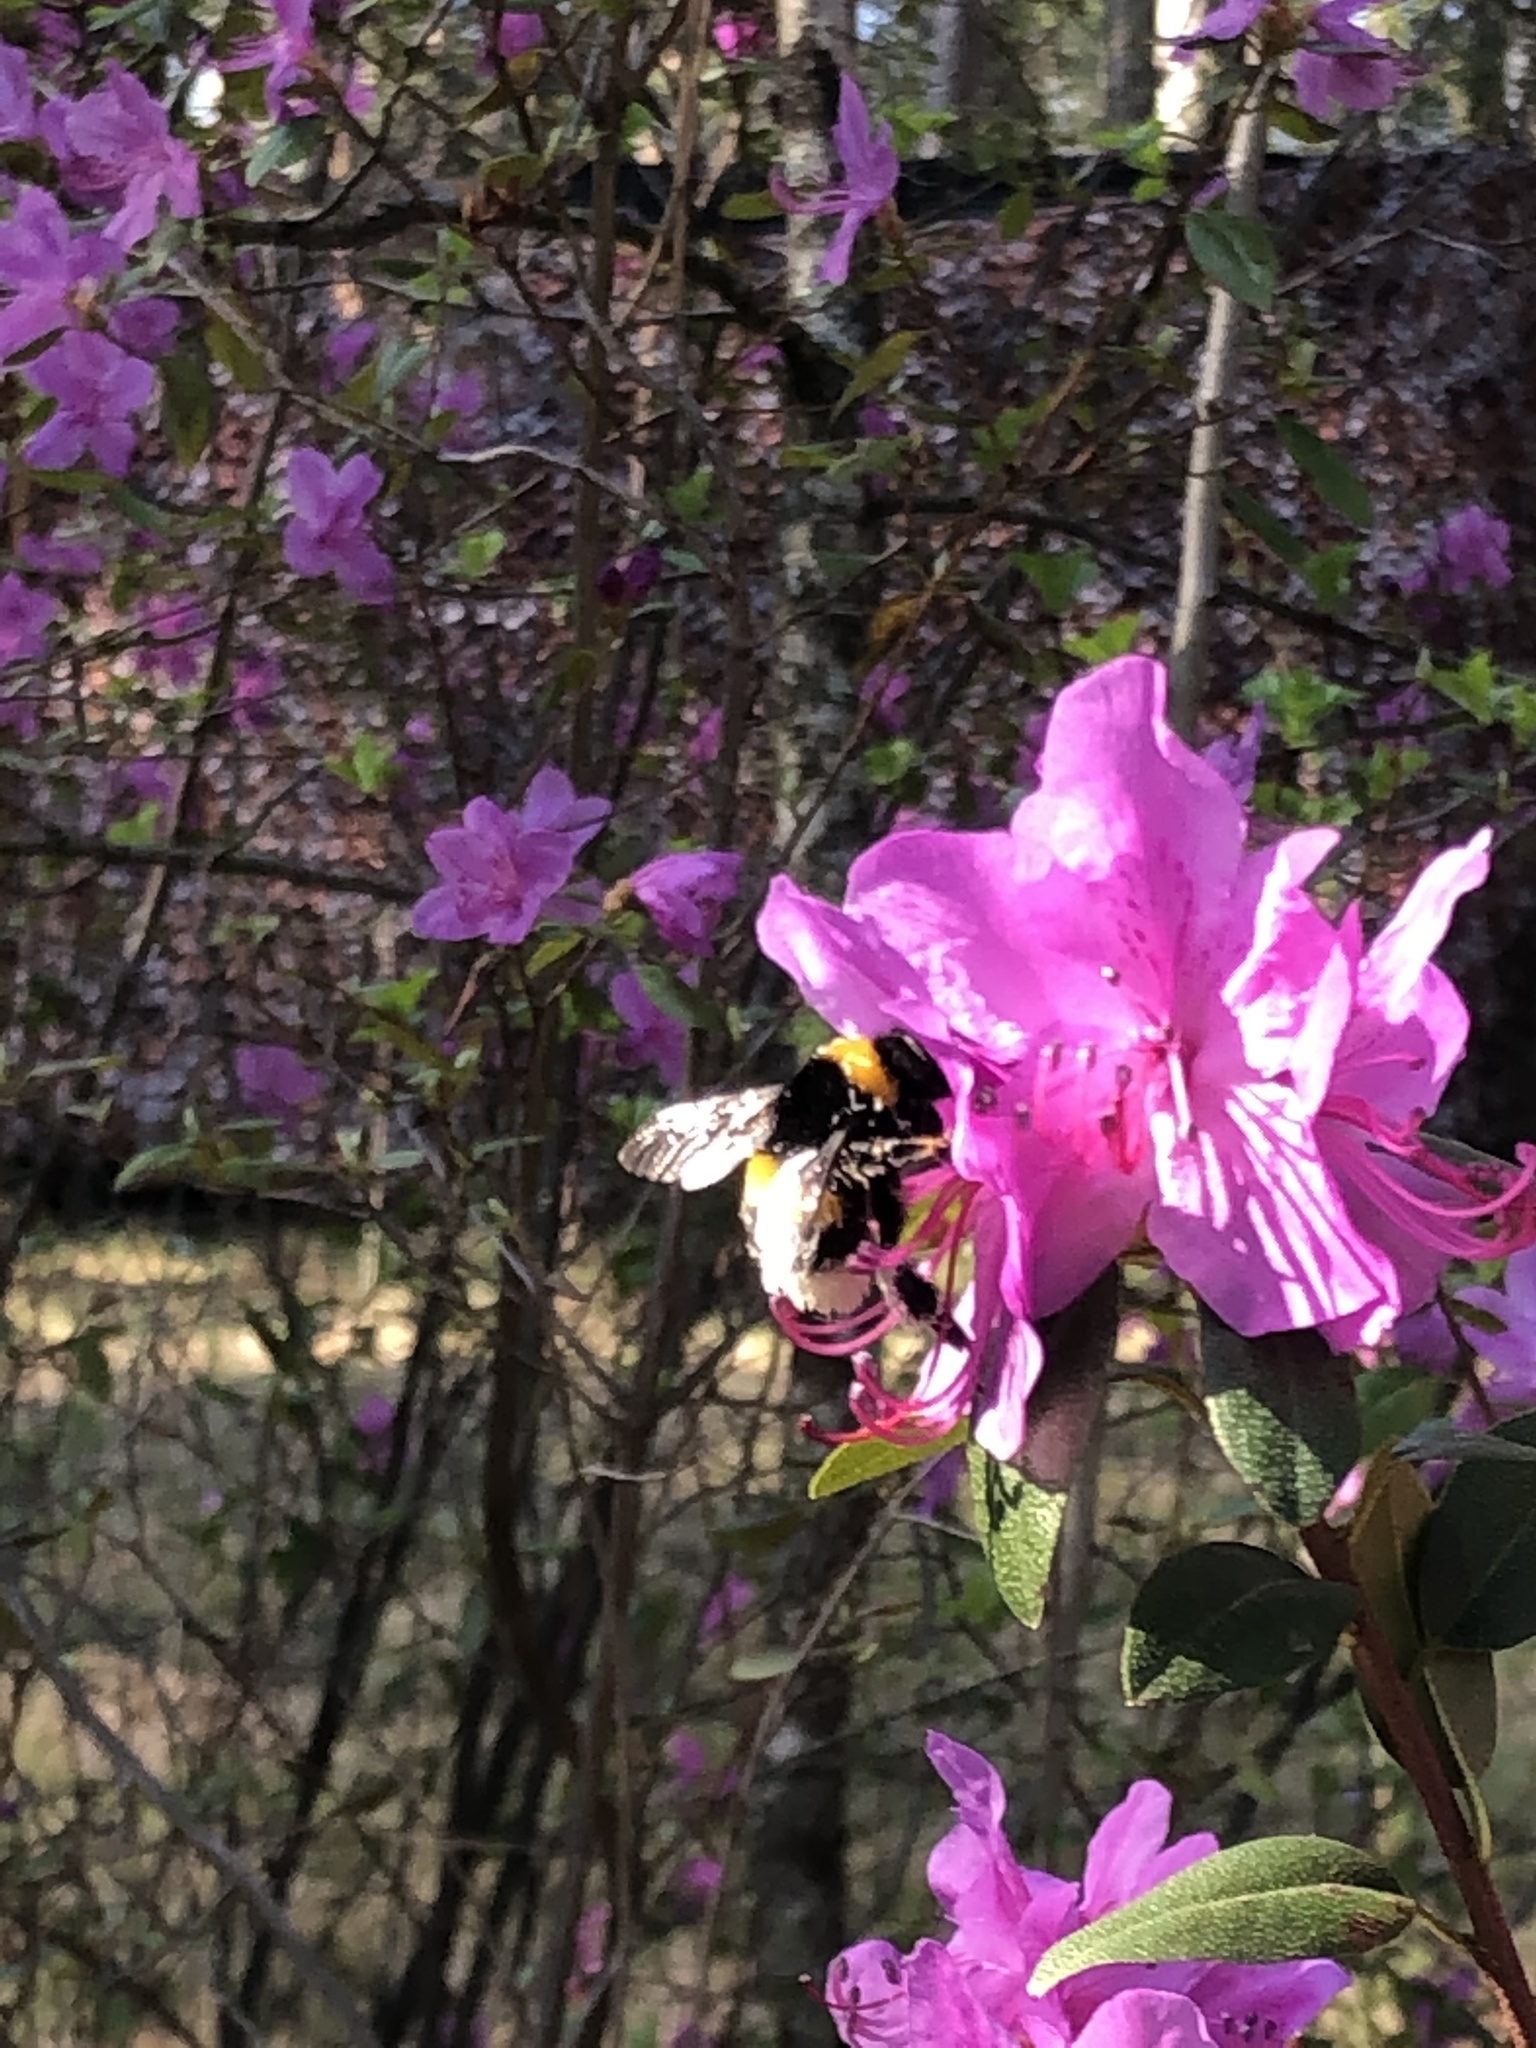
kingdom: Animalia
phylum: Arthropoda
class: Insecta
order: Hymenoptera
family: Apidae
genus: Bombus
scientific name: Bombus lucorum
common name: White-tailed bumblebee
